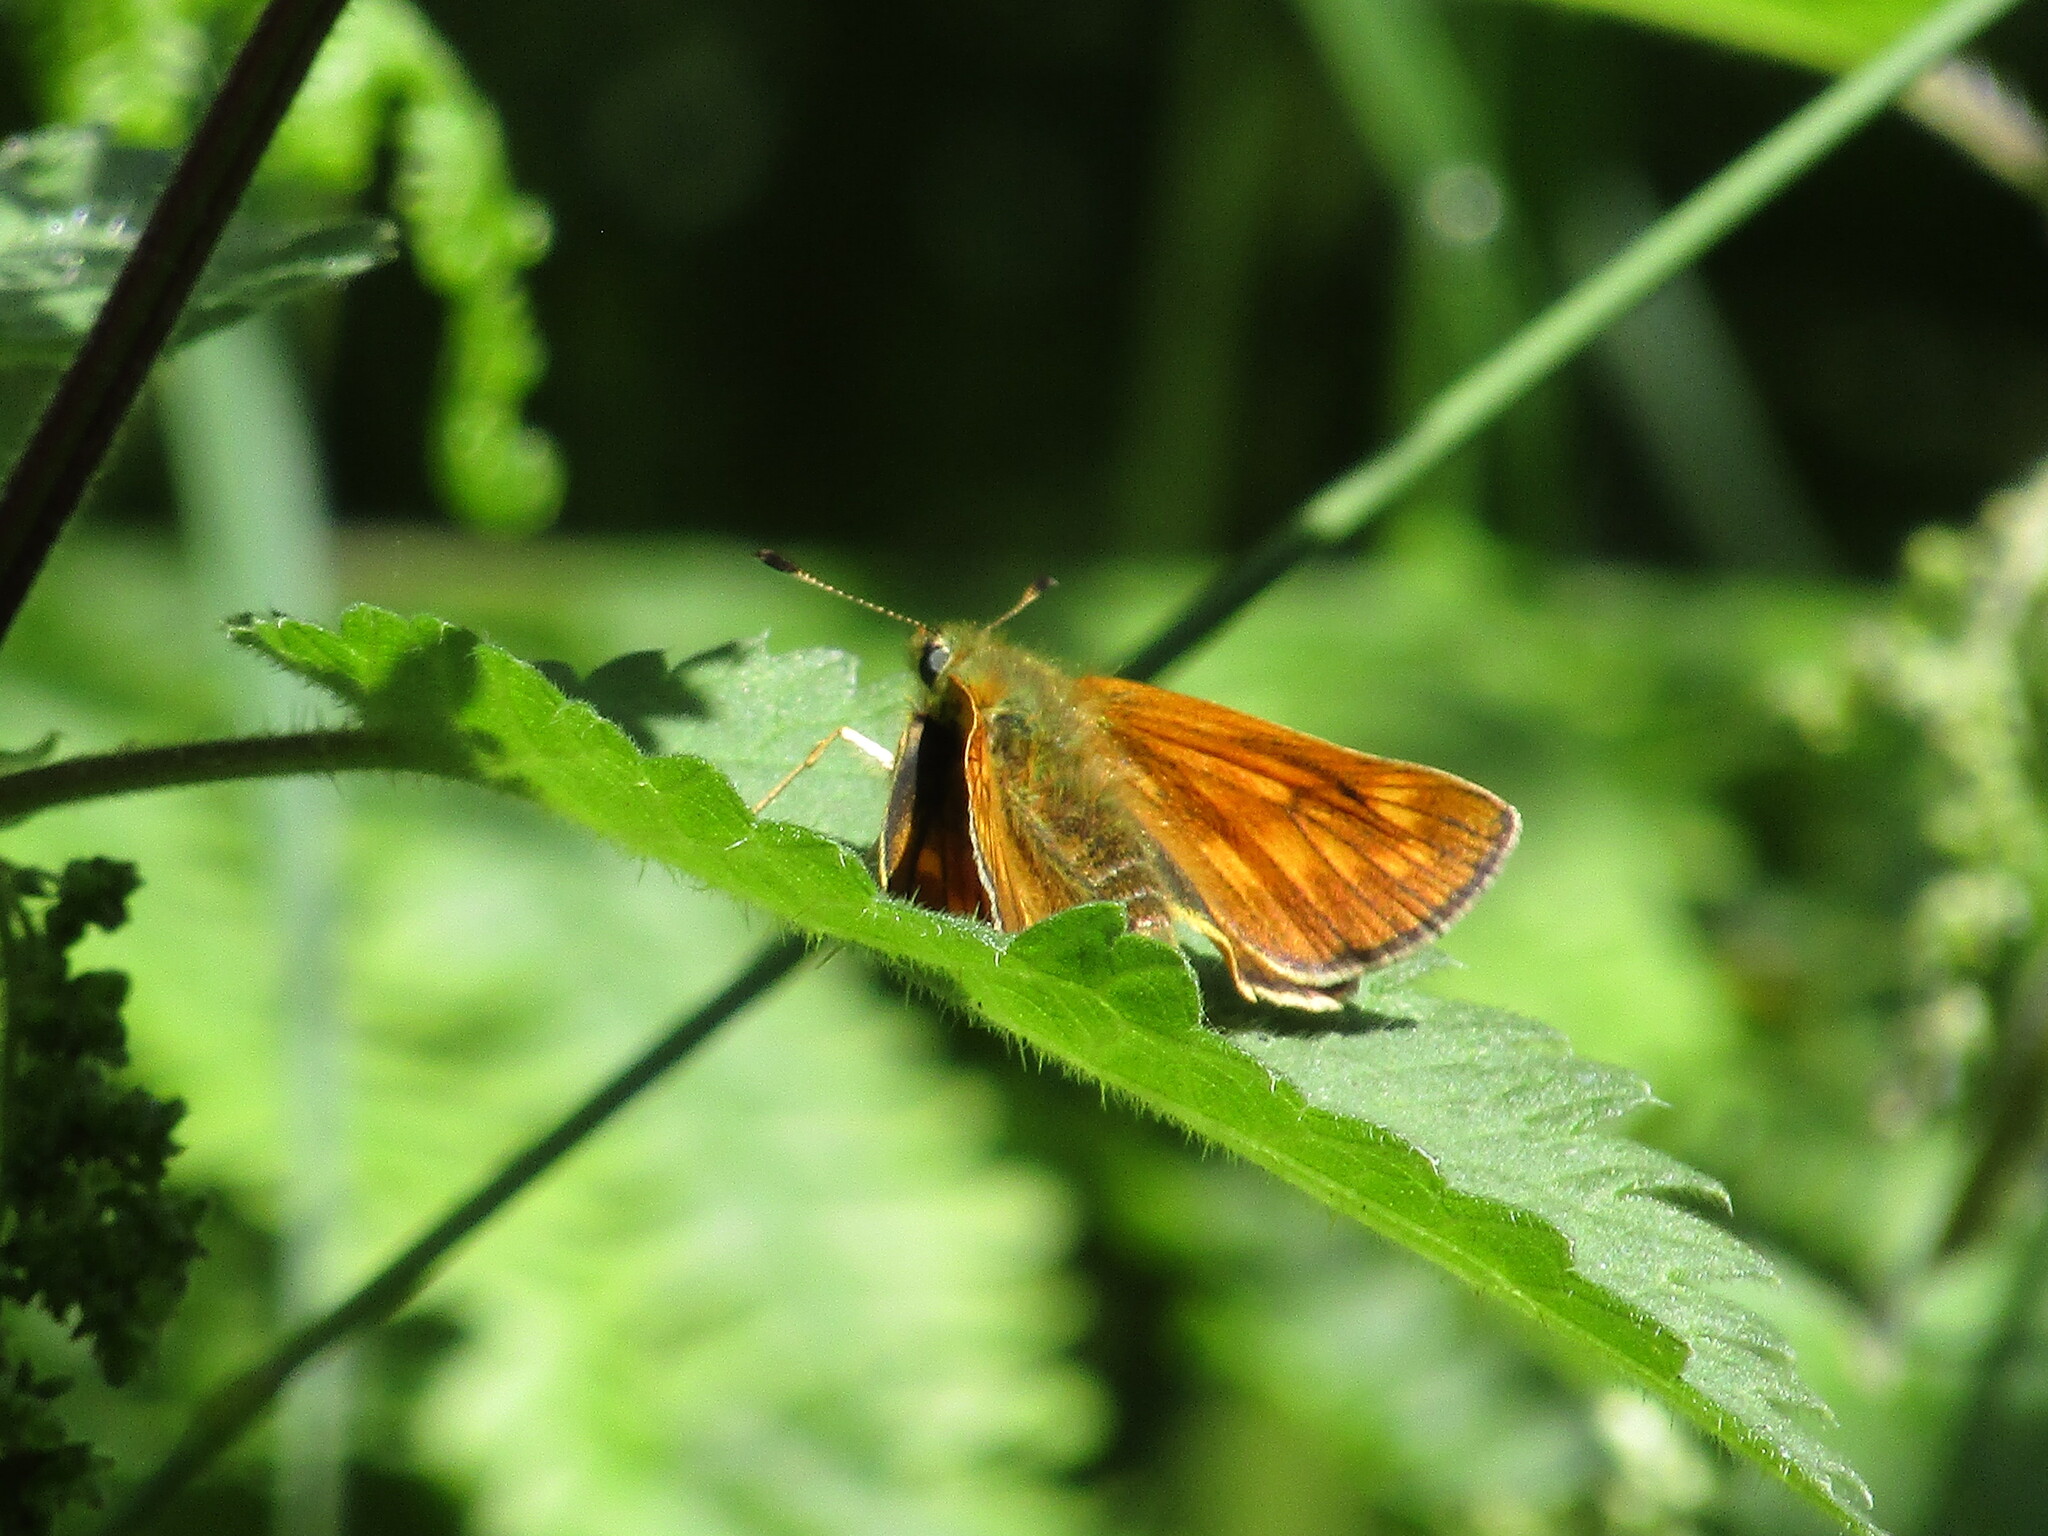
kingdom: Animalia
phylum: Arthropoda
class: Insecta
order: Lepidoptera
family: Hesperiidae
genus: Ochlodes
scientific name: Ochlodes venata
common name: Large skipper
